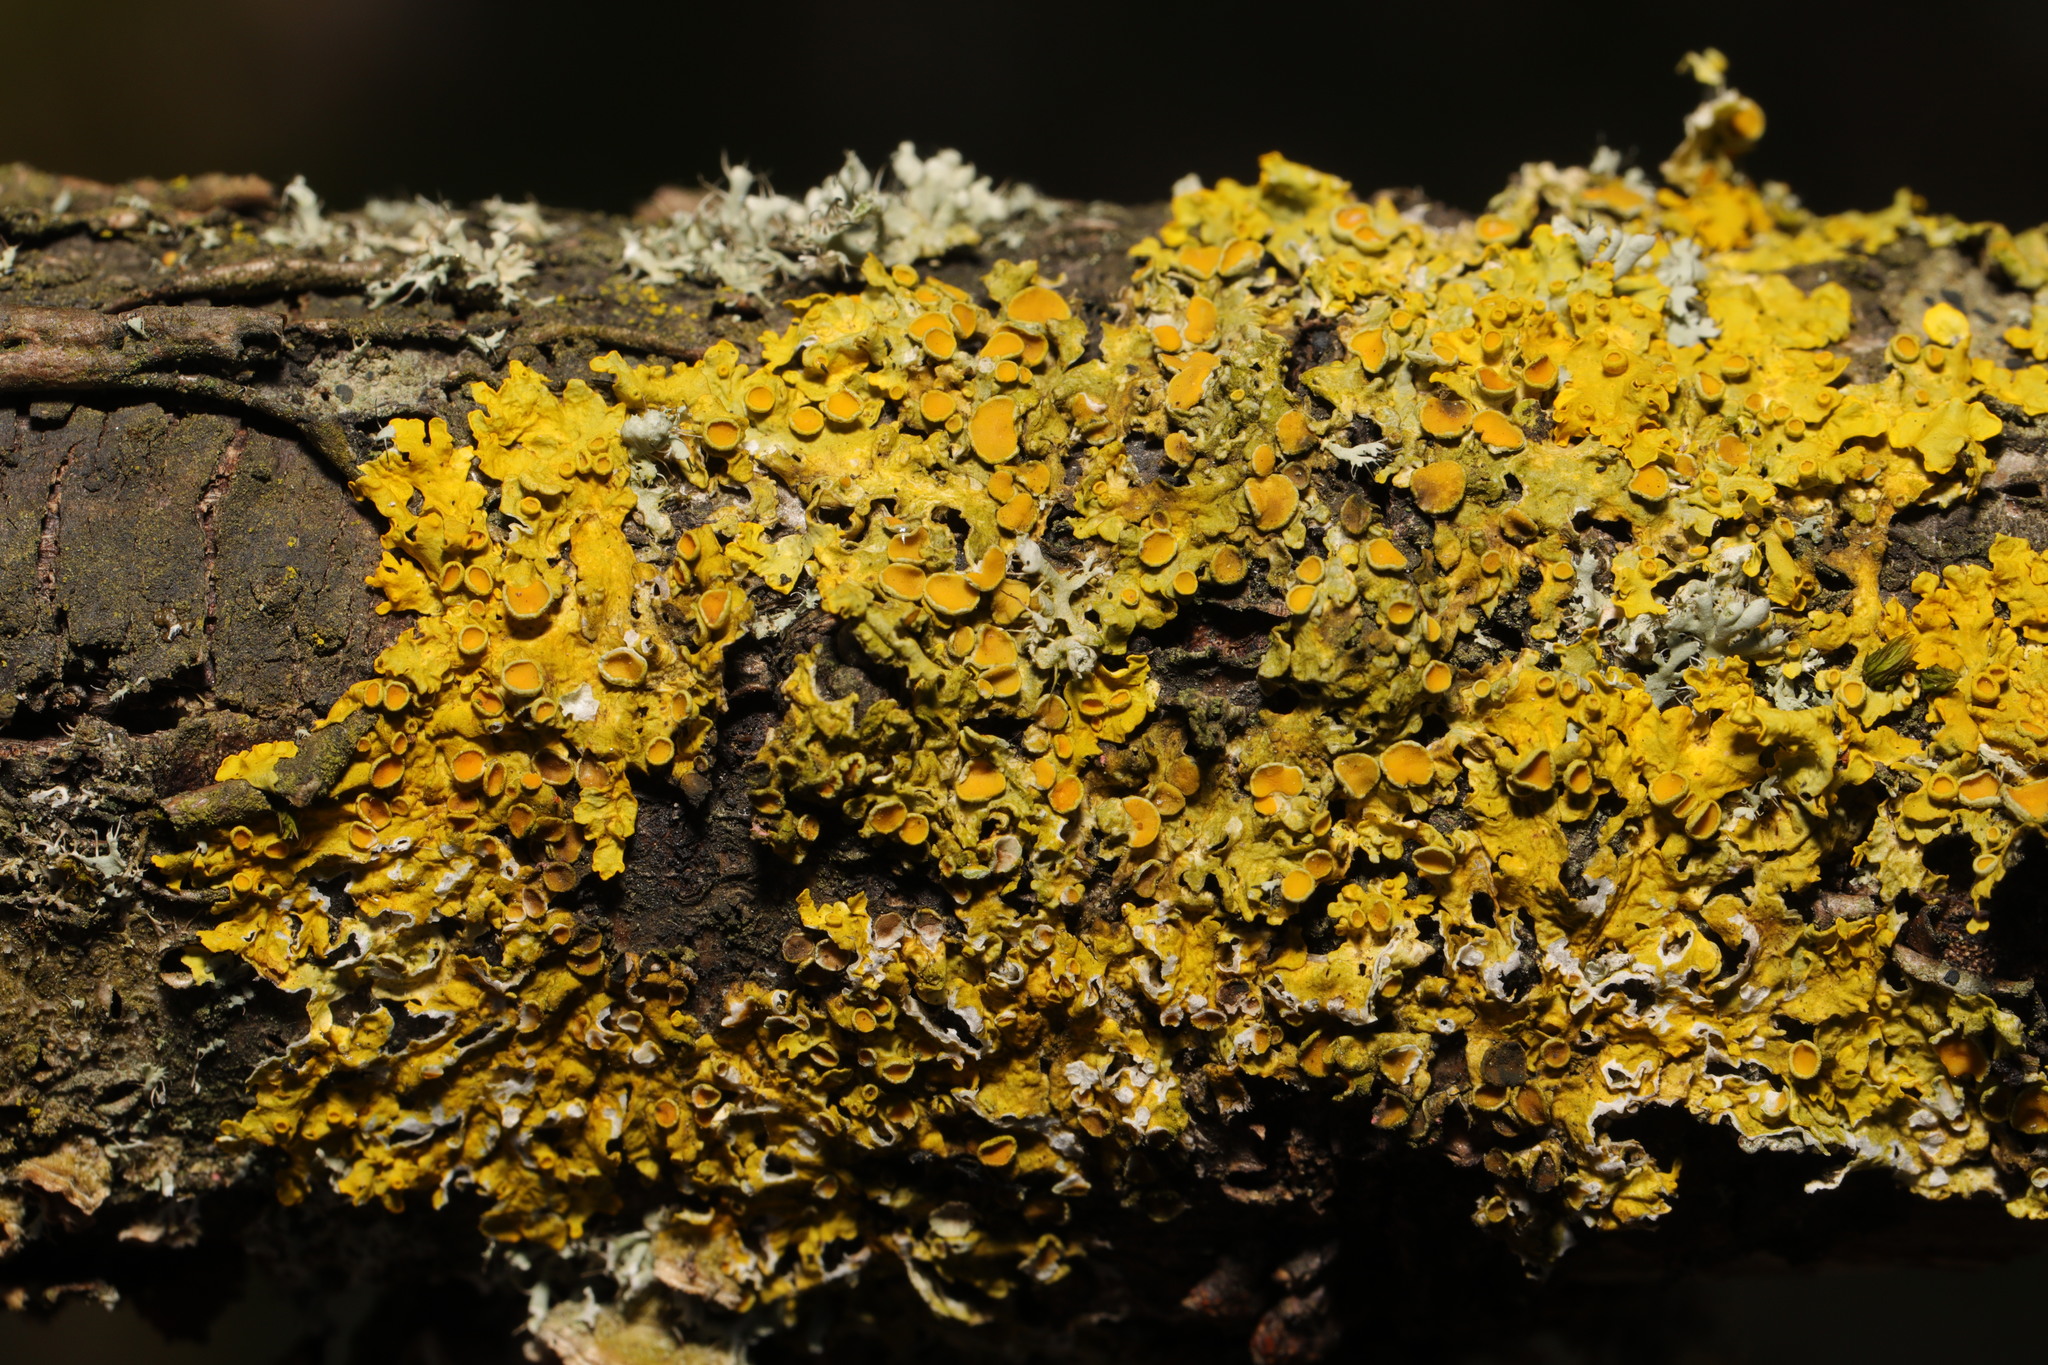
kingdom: Fungi
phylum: Ascomycota
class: Lecanoromycetes
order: Teloschistales
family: Teloschistaceae
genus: Xanthoria
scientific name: Xanthoria parietina
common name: Common orange lichen
